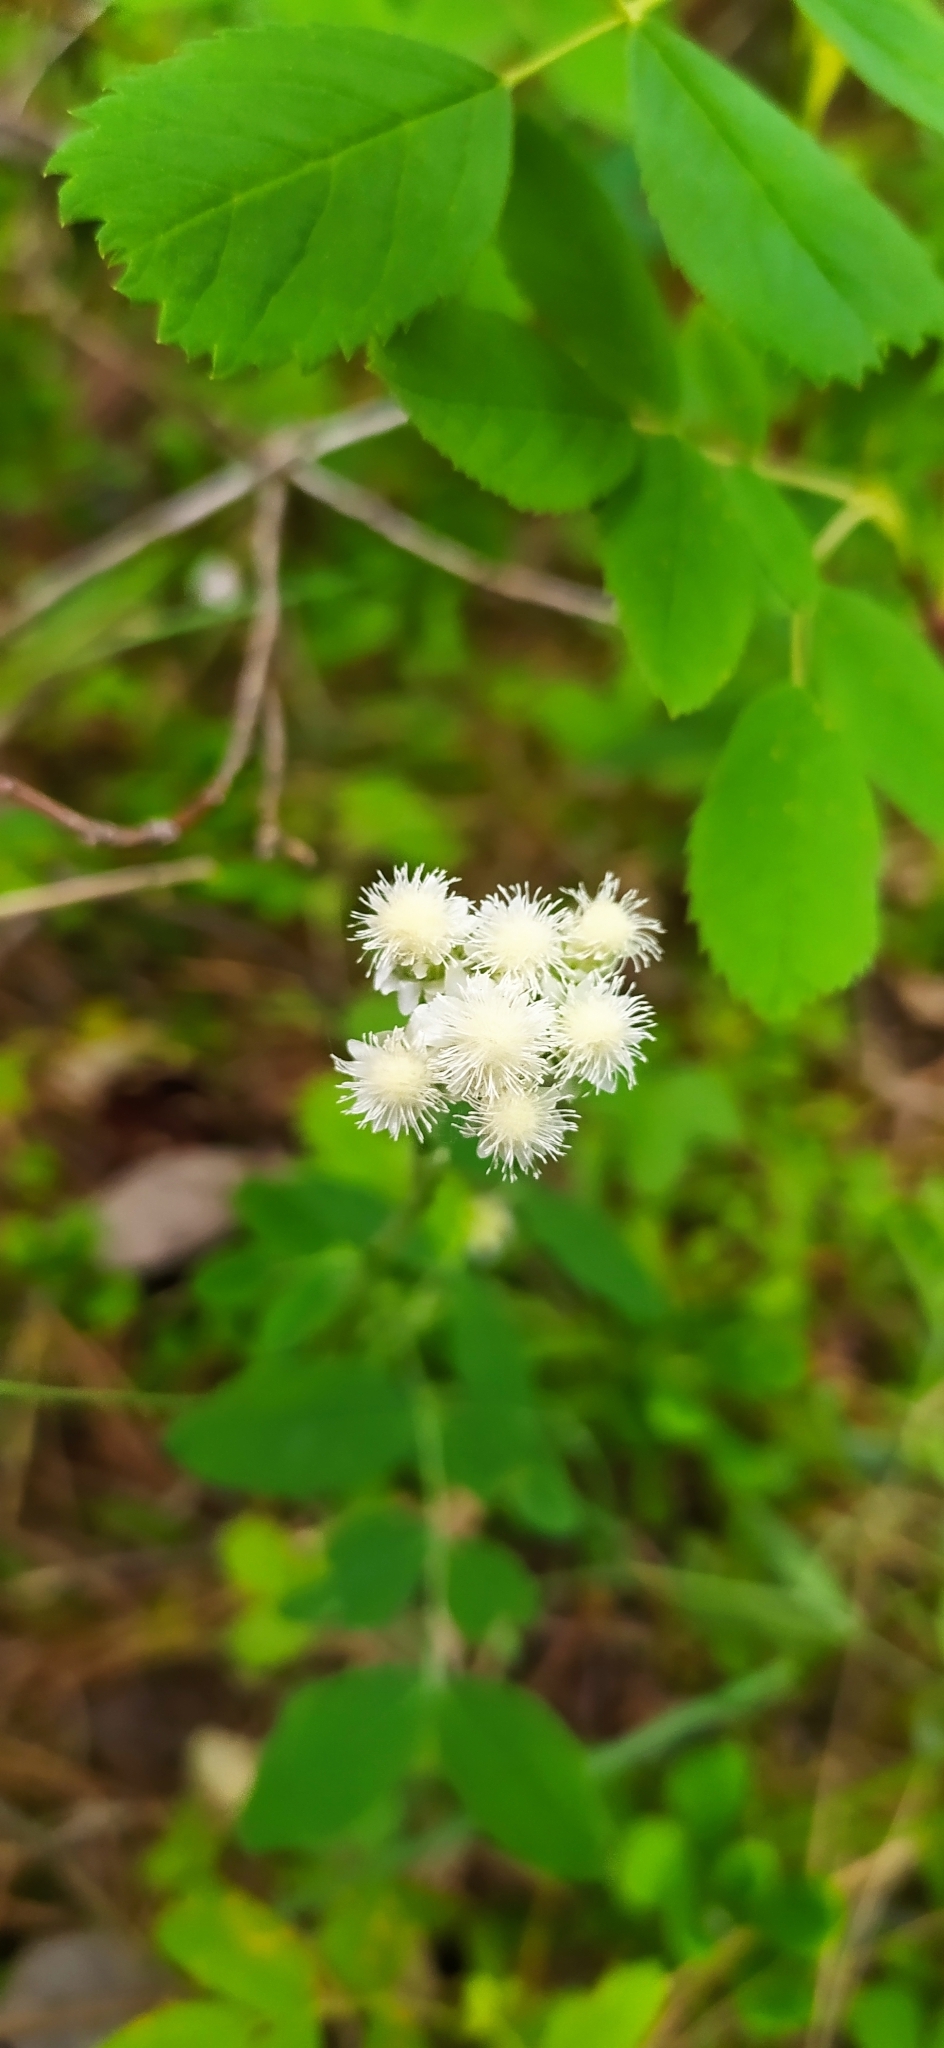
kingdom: Plantae
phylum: Tracheophyta
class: Magnoliopsida
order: Asterales
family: Asteraceae
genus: Antennaria
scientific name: Antennaria dioica
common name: Mountain everlasting
